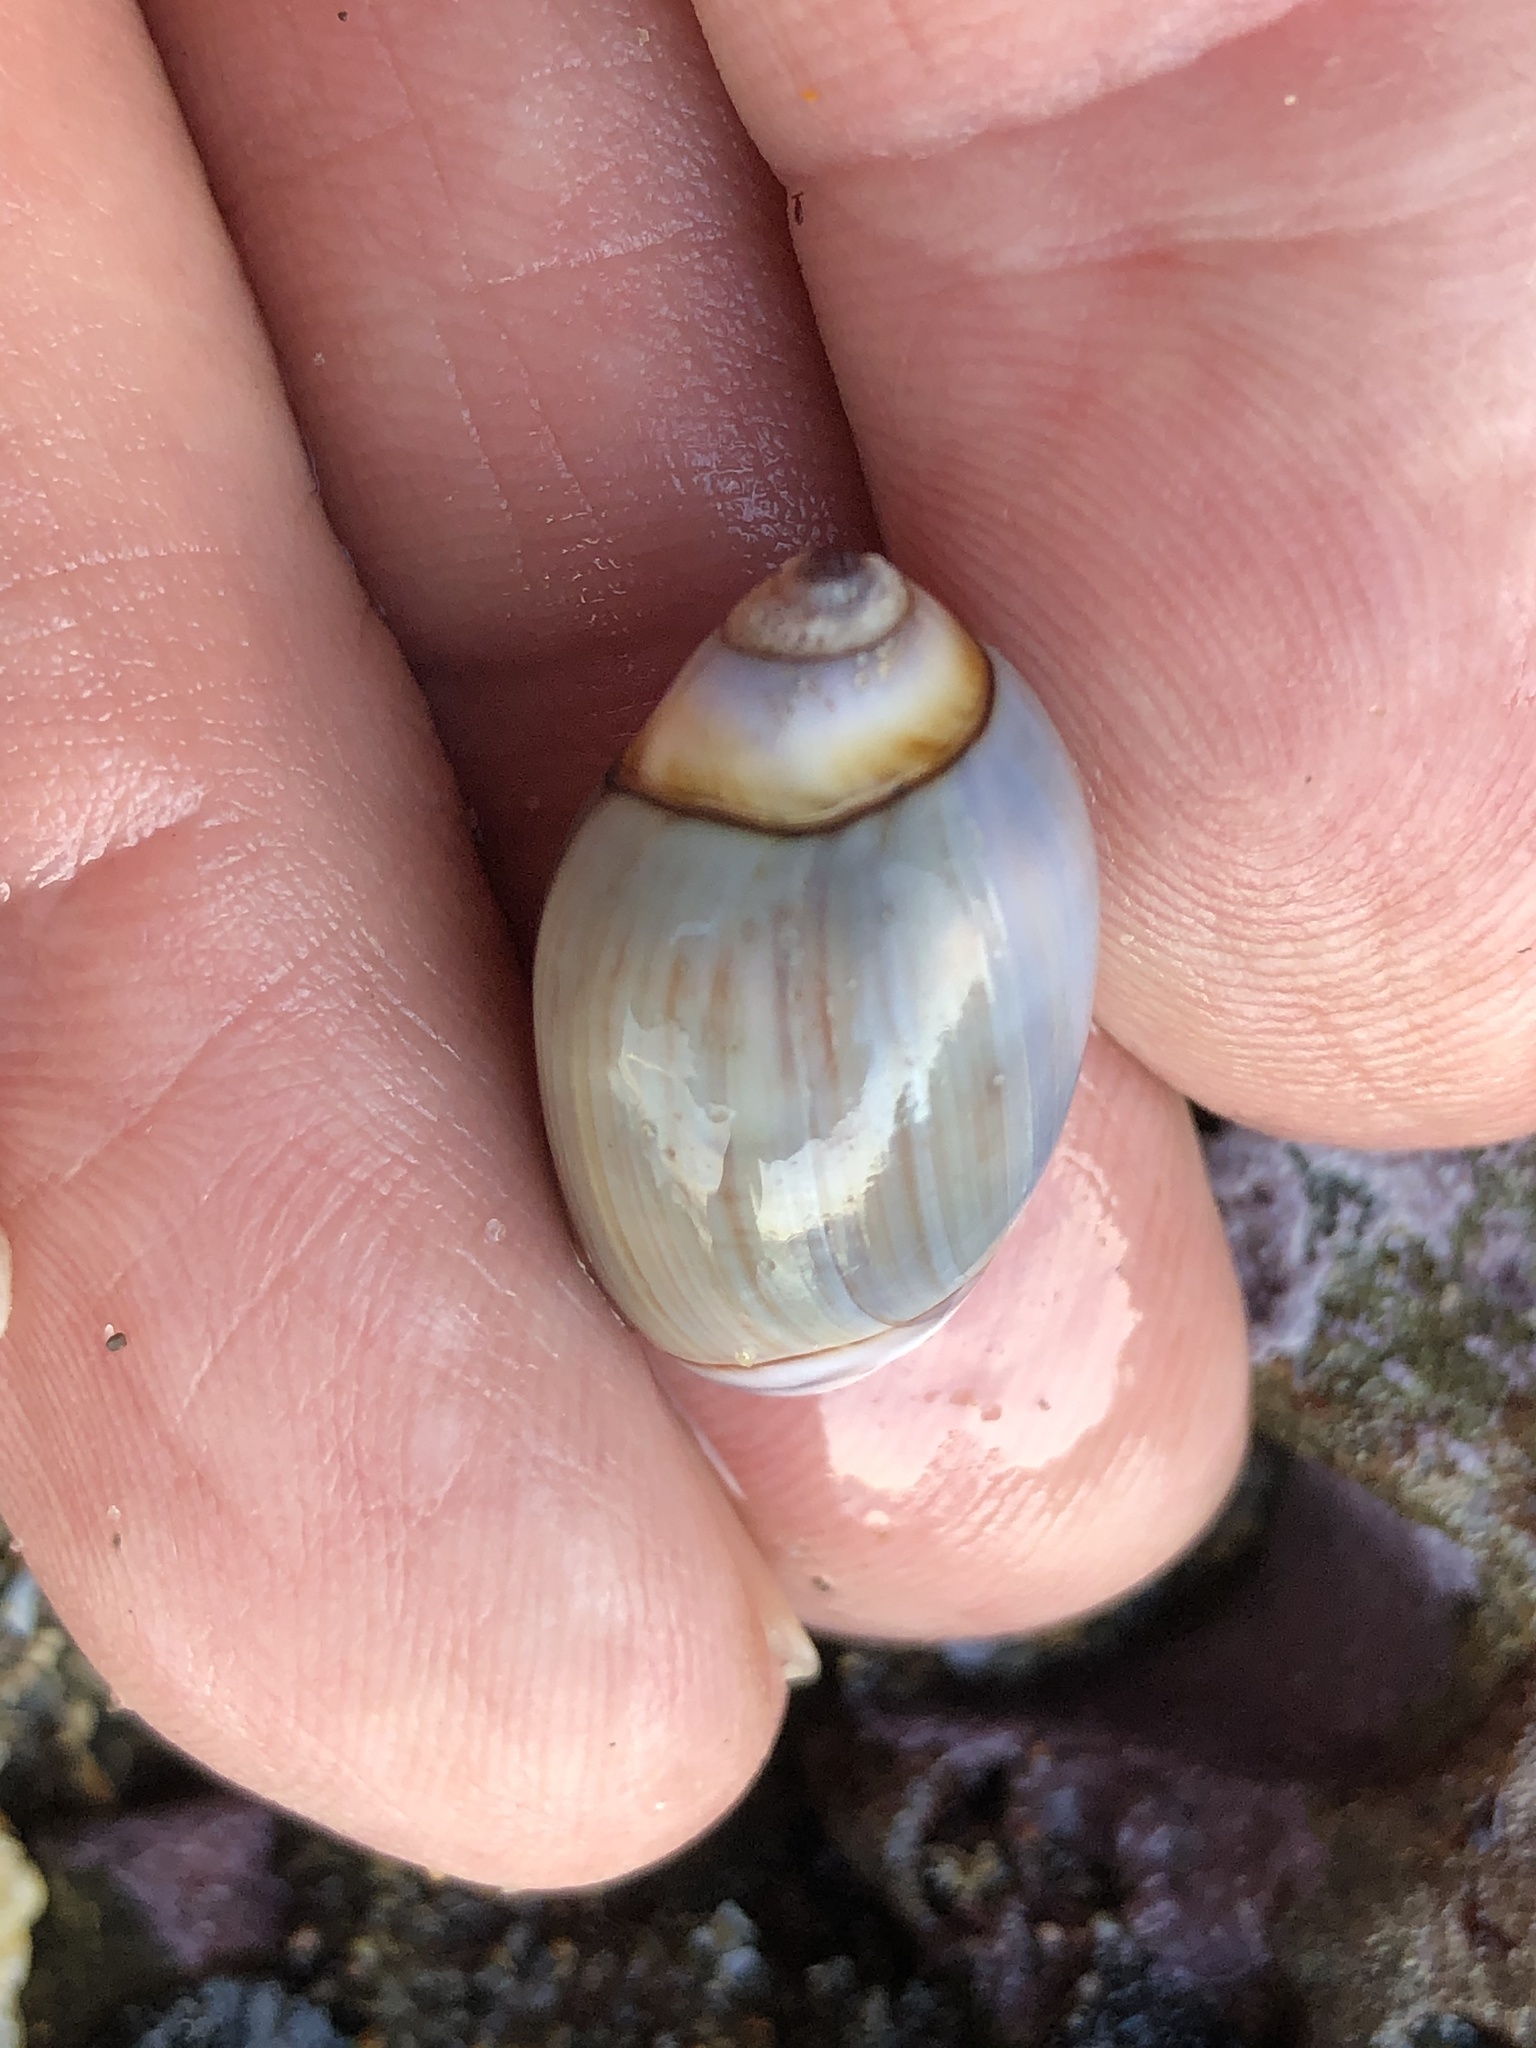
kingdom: Animalia
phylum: Mollusca
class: Gastropoda
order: Neogastropoda
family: Olividae
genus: Callianax
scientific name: Callianax biplicata
